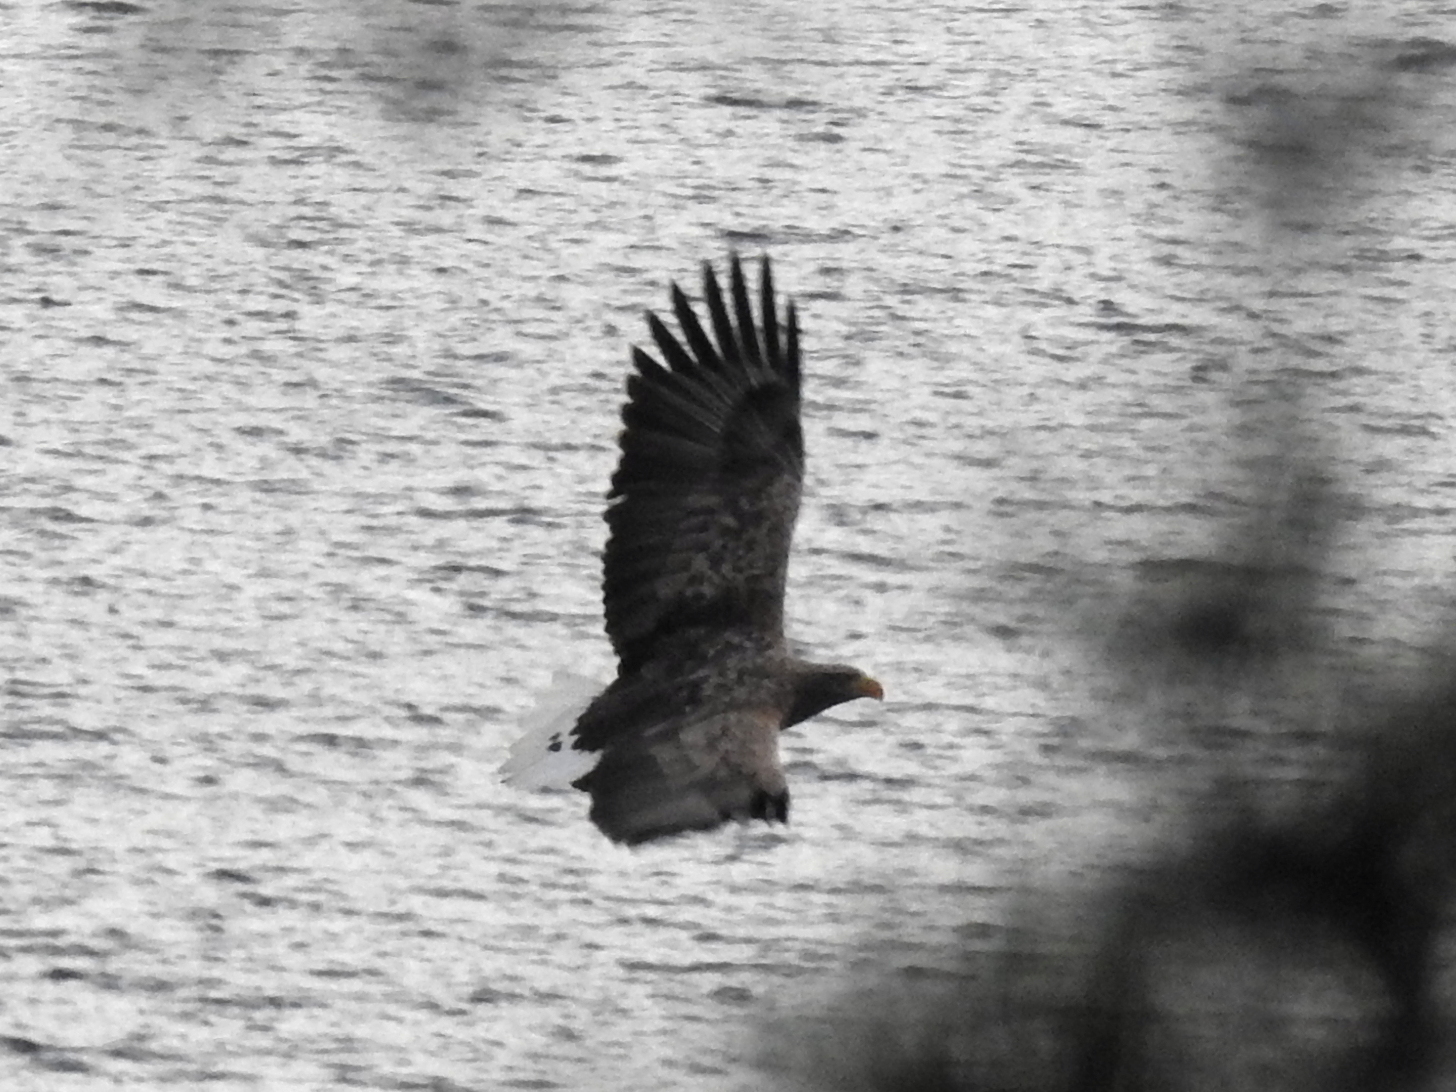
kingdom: Animalia
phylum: Chordata
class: Aves
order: Accipitriformes
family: Accipitridae
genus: Haliaeetus
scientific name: Haliaeetus albicilla
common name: White-tailed eagle
